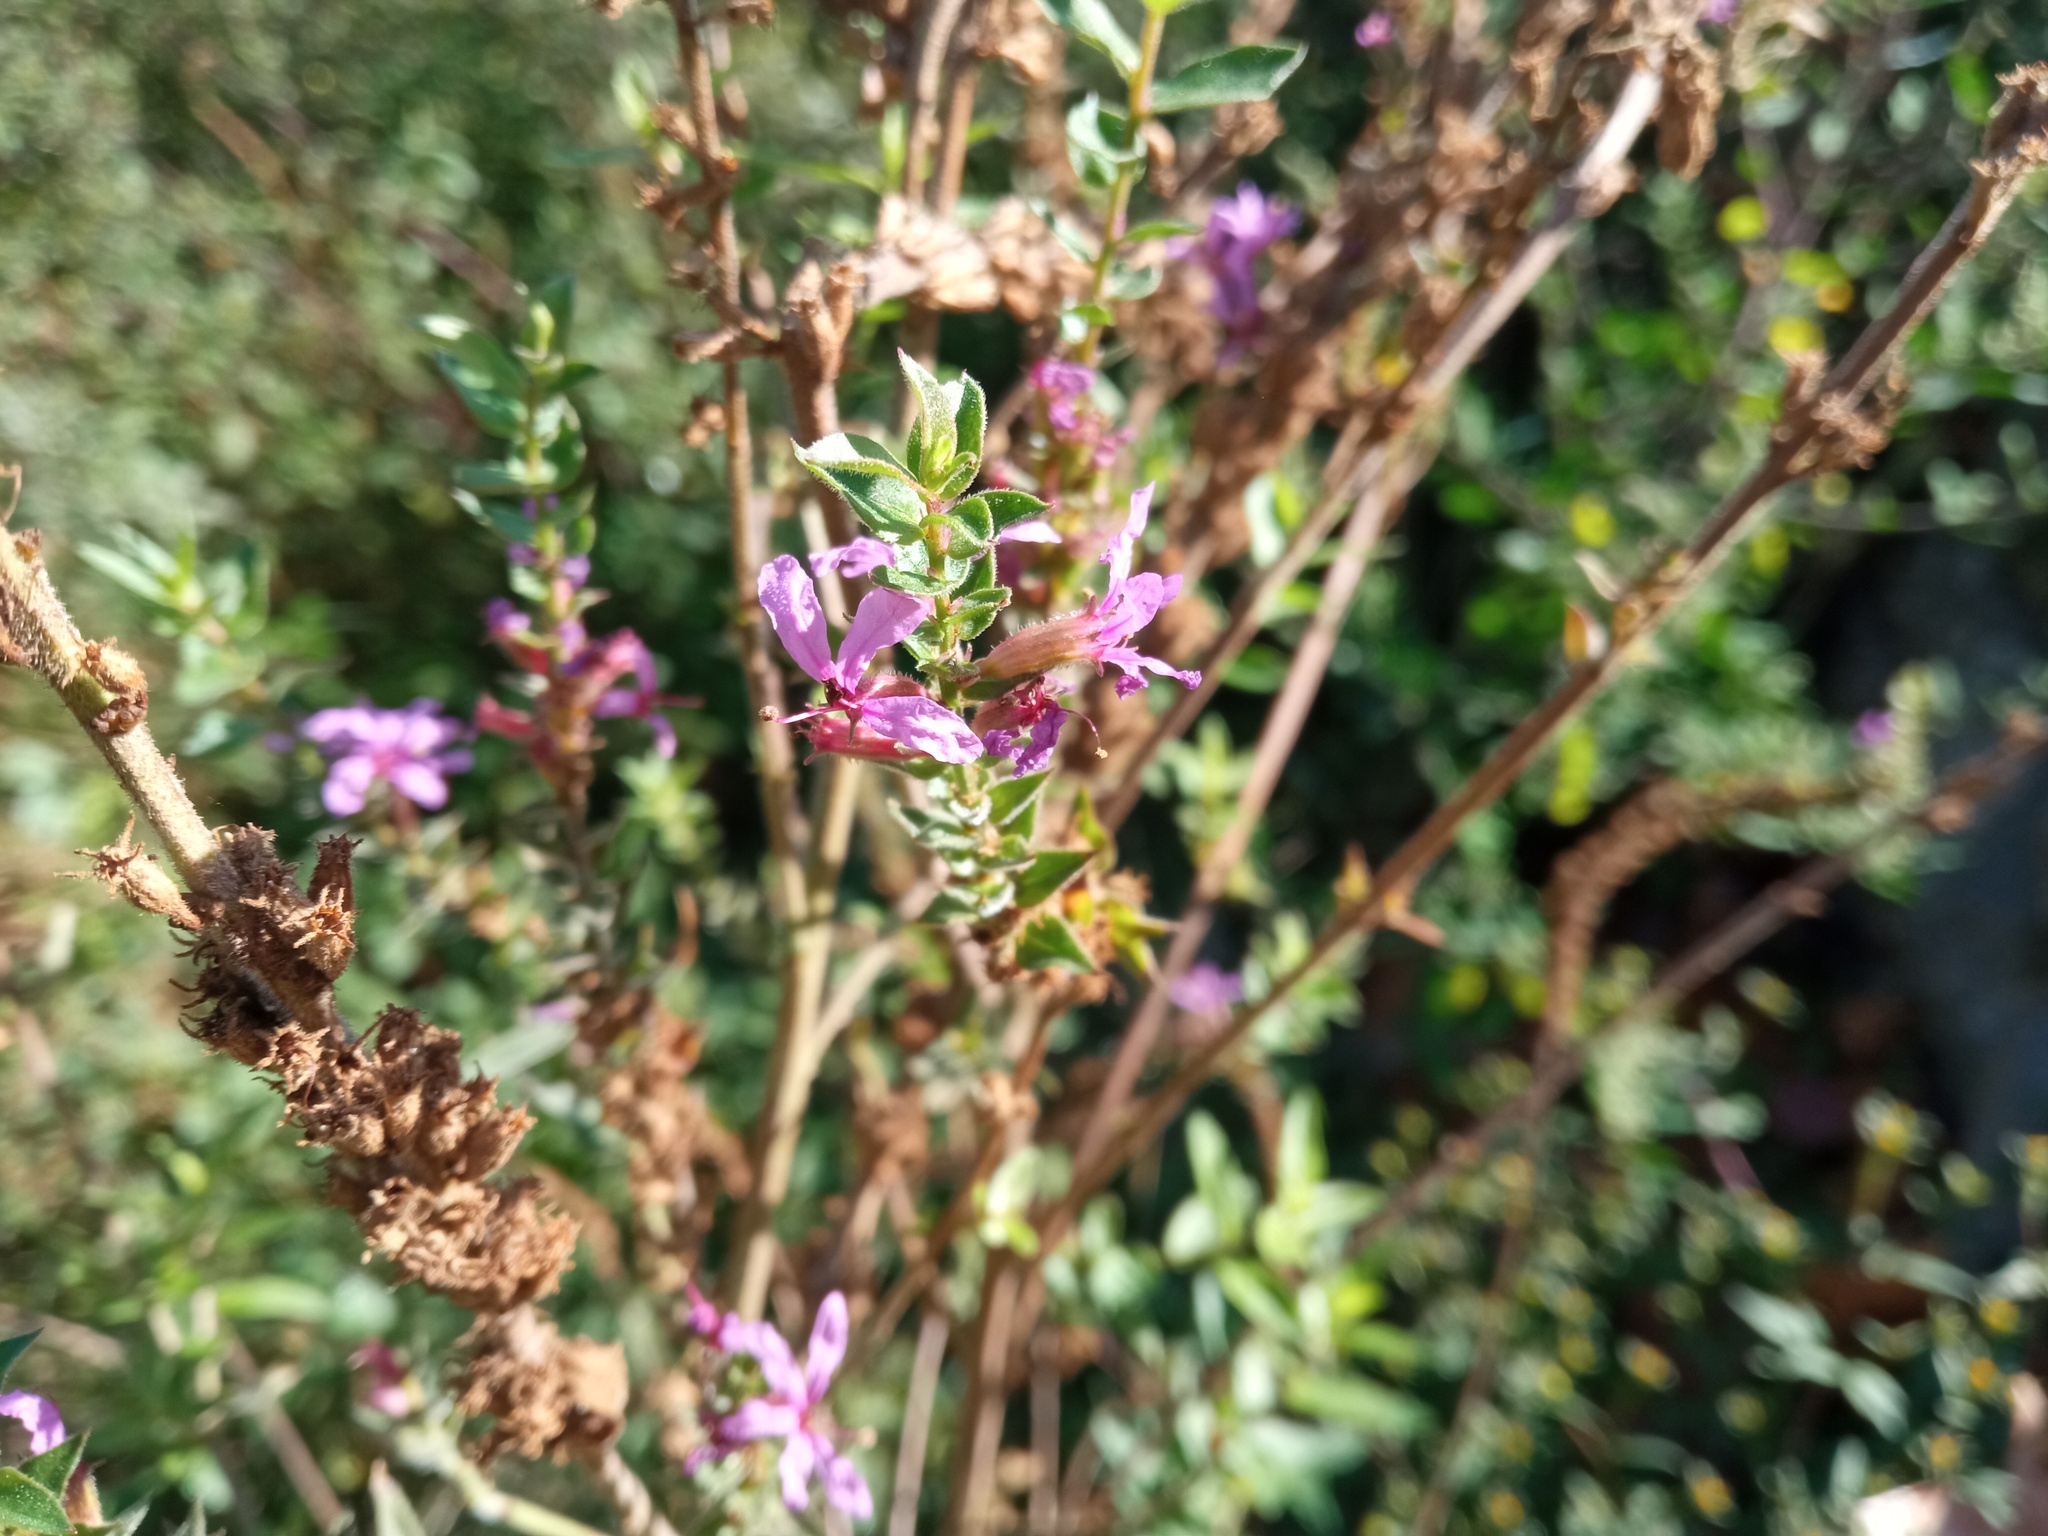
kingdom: Plantae
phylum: Tracheophyta
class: Magnoliopsida
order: Myrtales
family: Lythraceae
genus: Lythrum
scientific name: Lythrum salicaria
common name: Purple loosestrife
